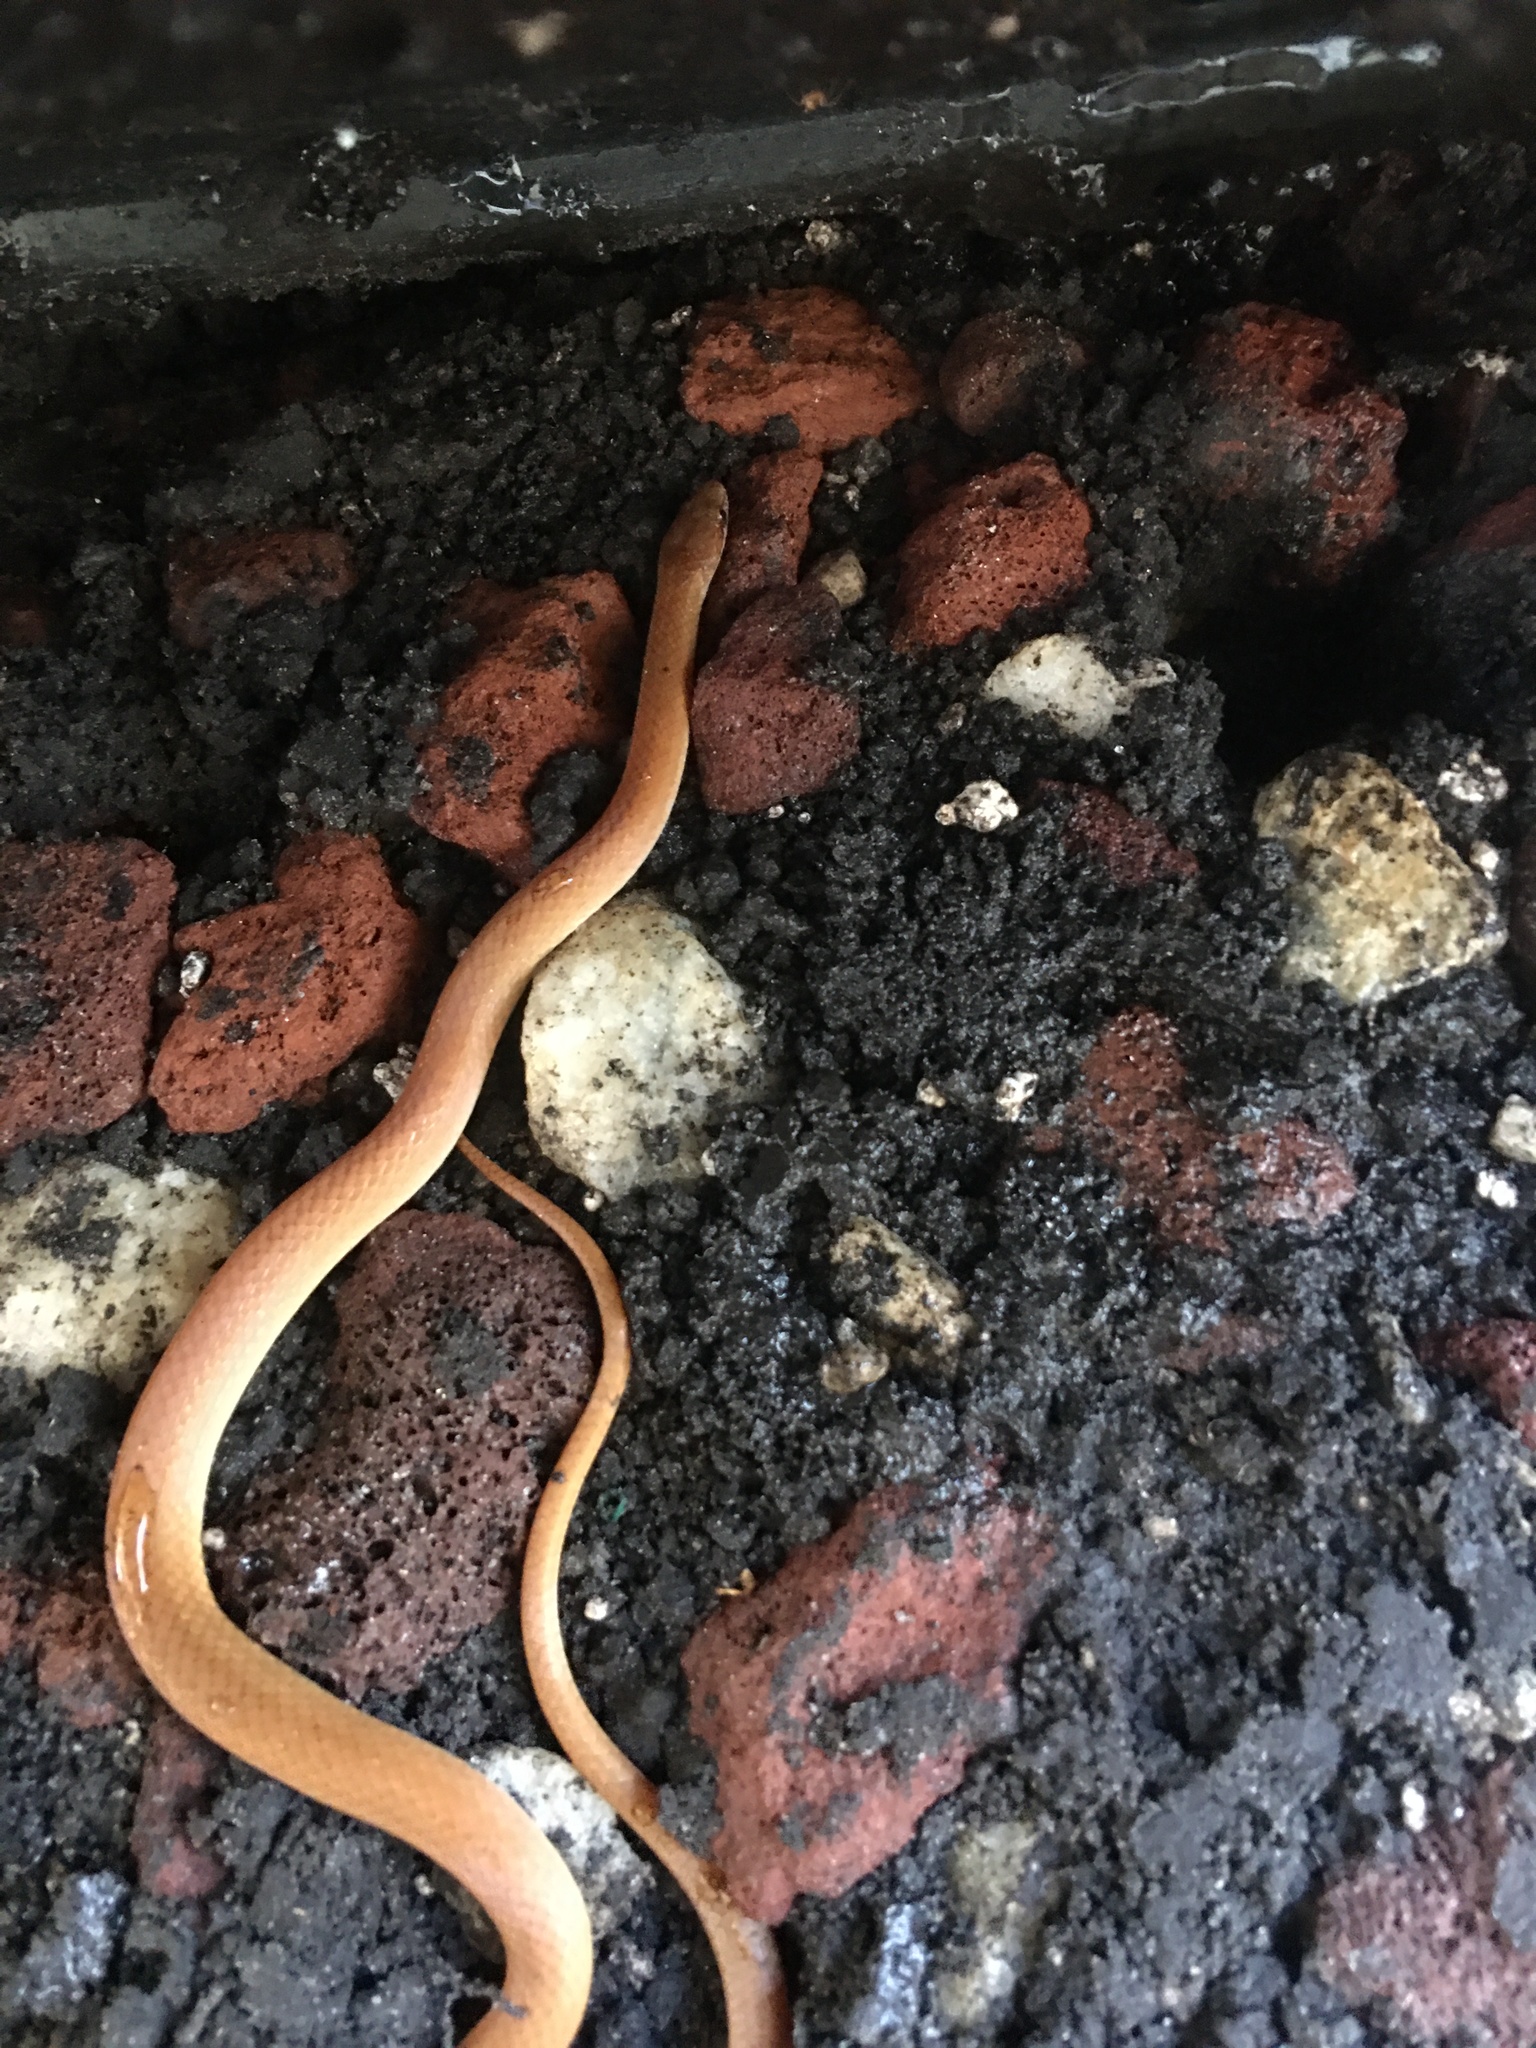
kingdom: Animalia
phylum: Chordata
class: Squamata
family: Colubridae
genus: Rhadinaea
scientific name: Rhadinaea flavilata
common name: Pine woods littersnake
